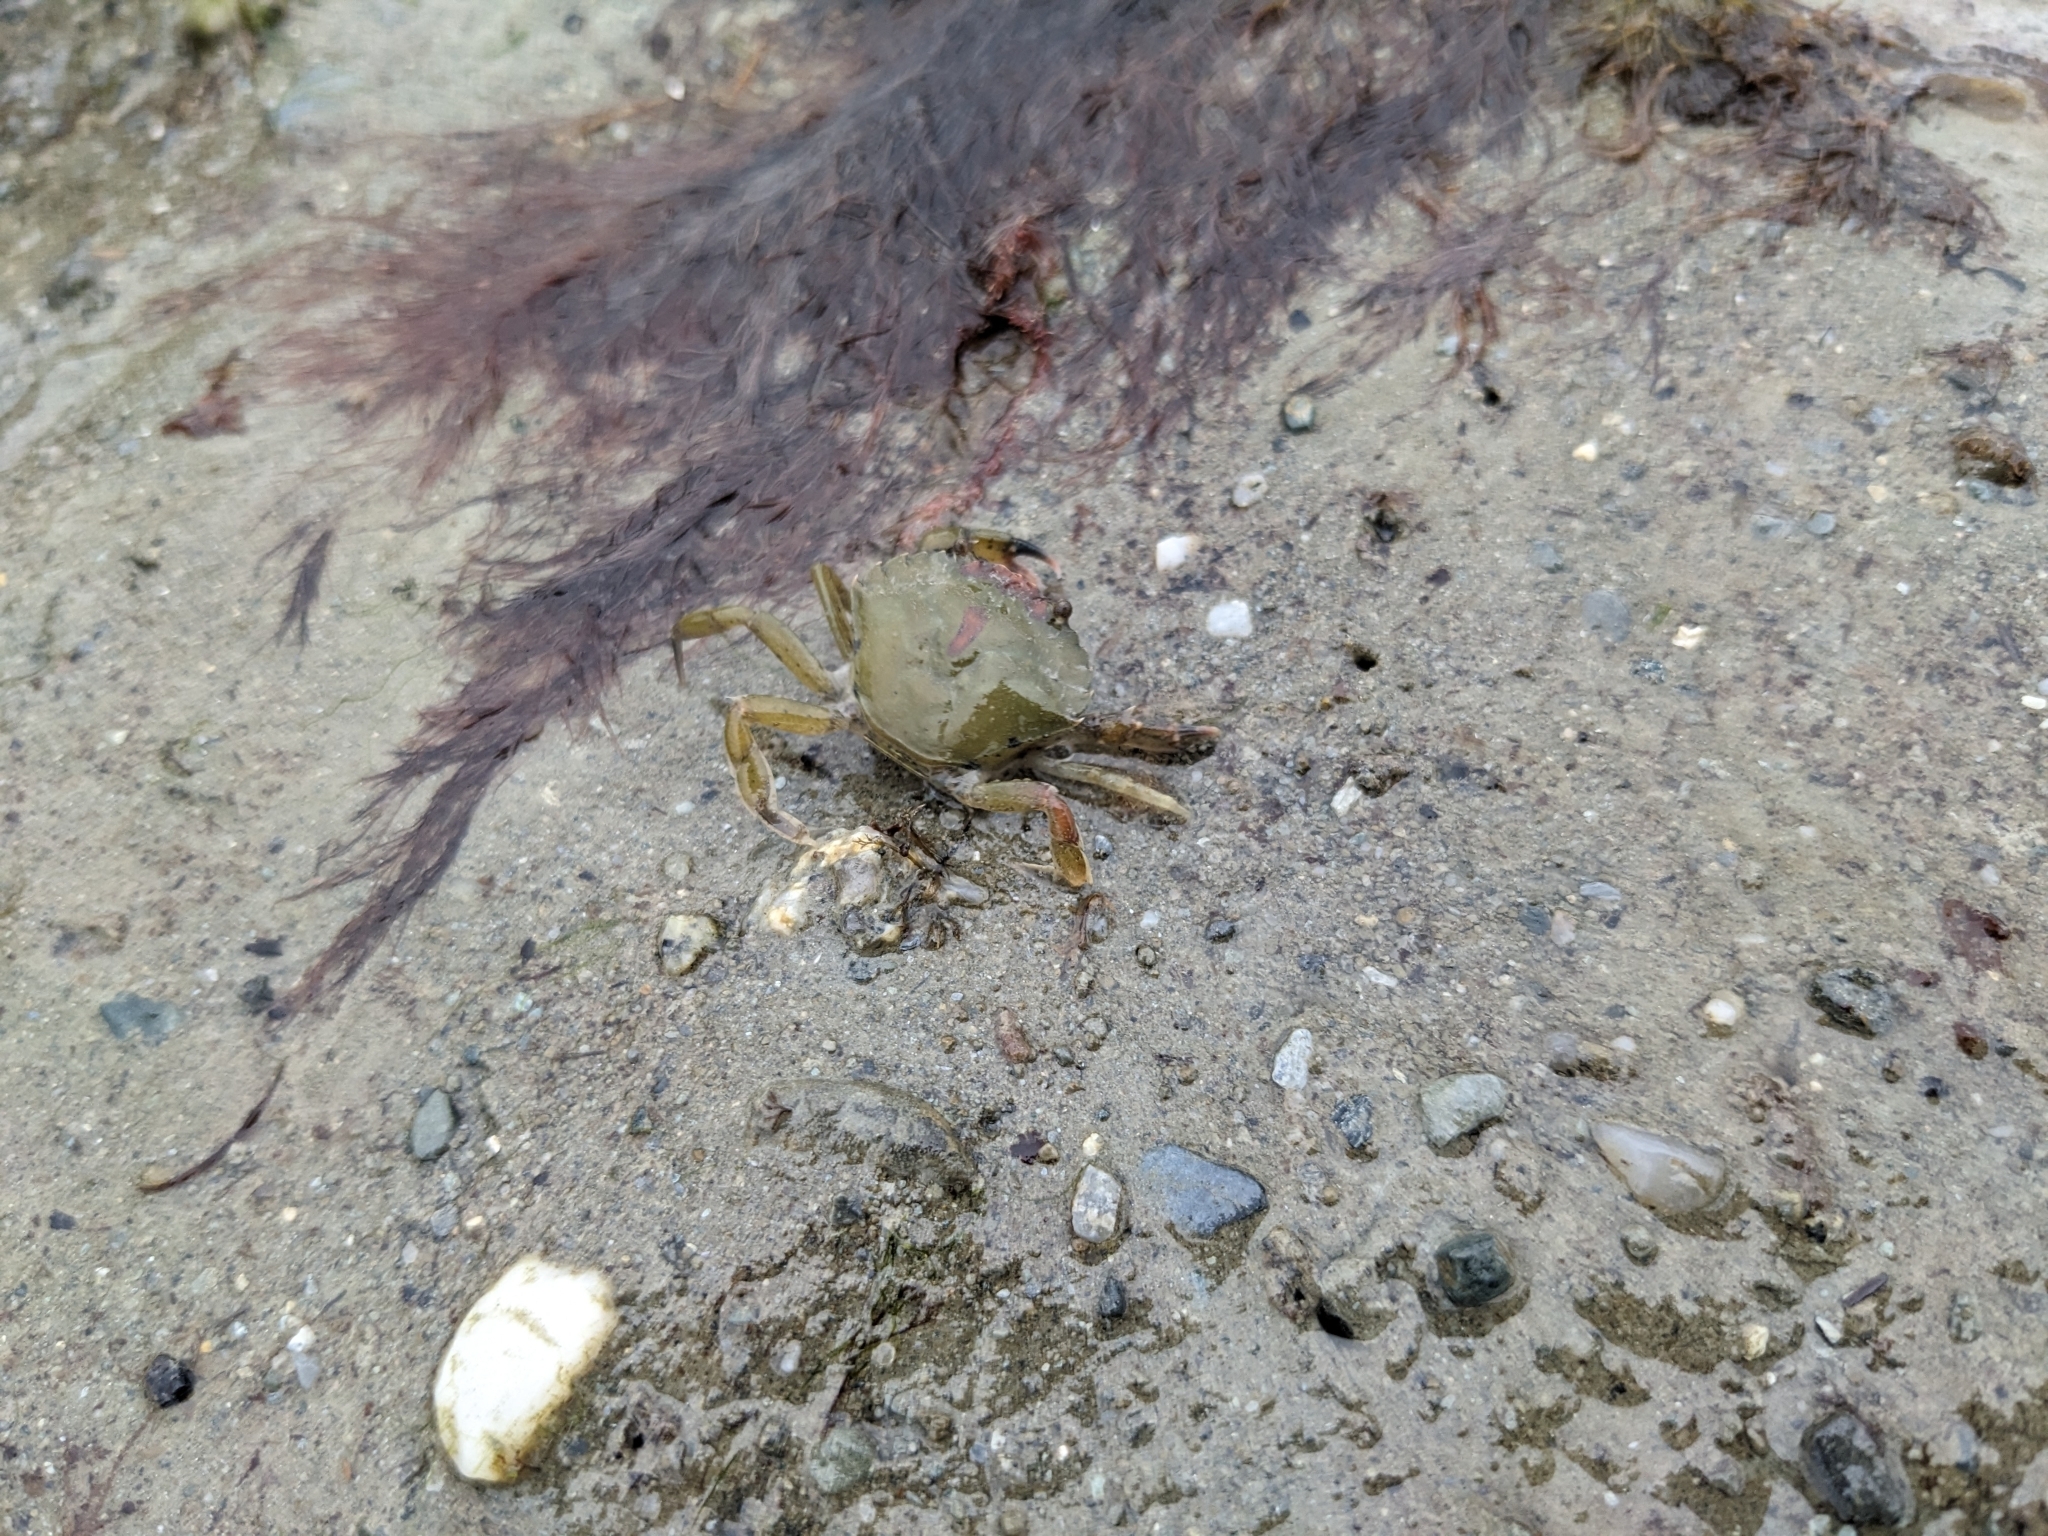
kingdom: Animalia
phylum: Arthropoda
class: Malacostraca
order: Decapoda
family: Carcinidae
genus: Carcinus
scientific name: Carcinus maenas
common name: European green crab
